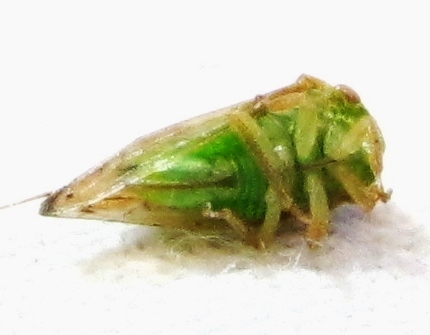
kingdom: Animalia
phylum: Arthropoda
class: Insecta
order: Hemiptera
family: Membracidae
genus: Cyrtolobus
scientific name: Cyrtolobus fenestrata
